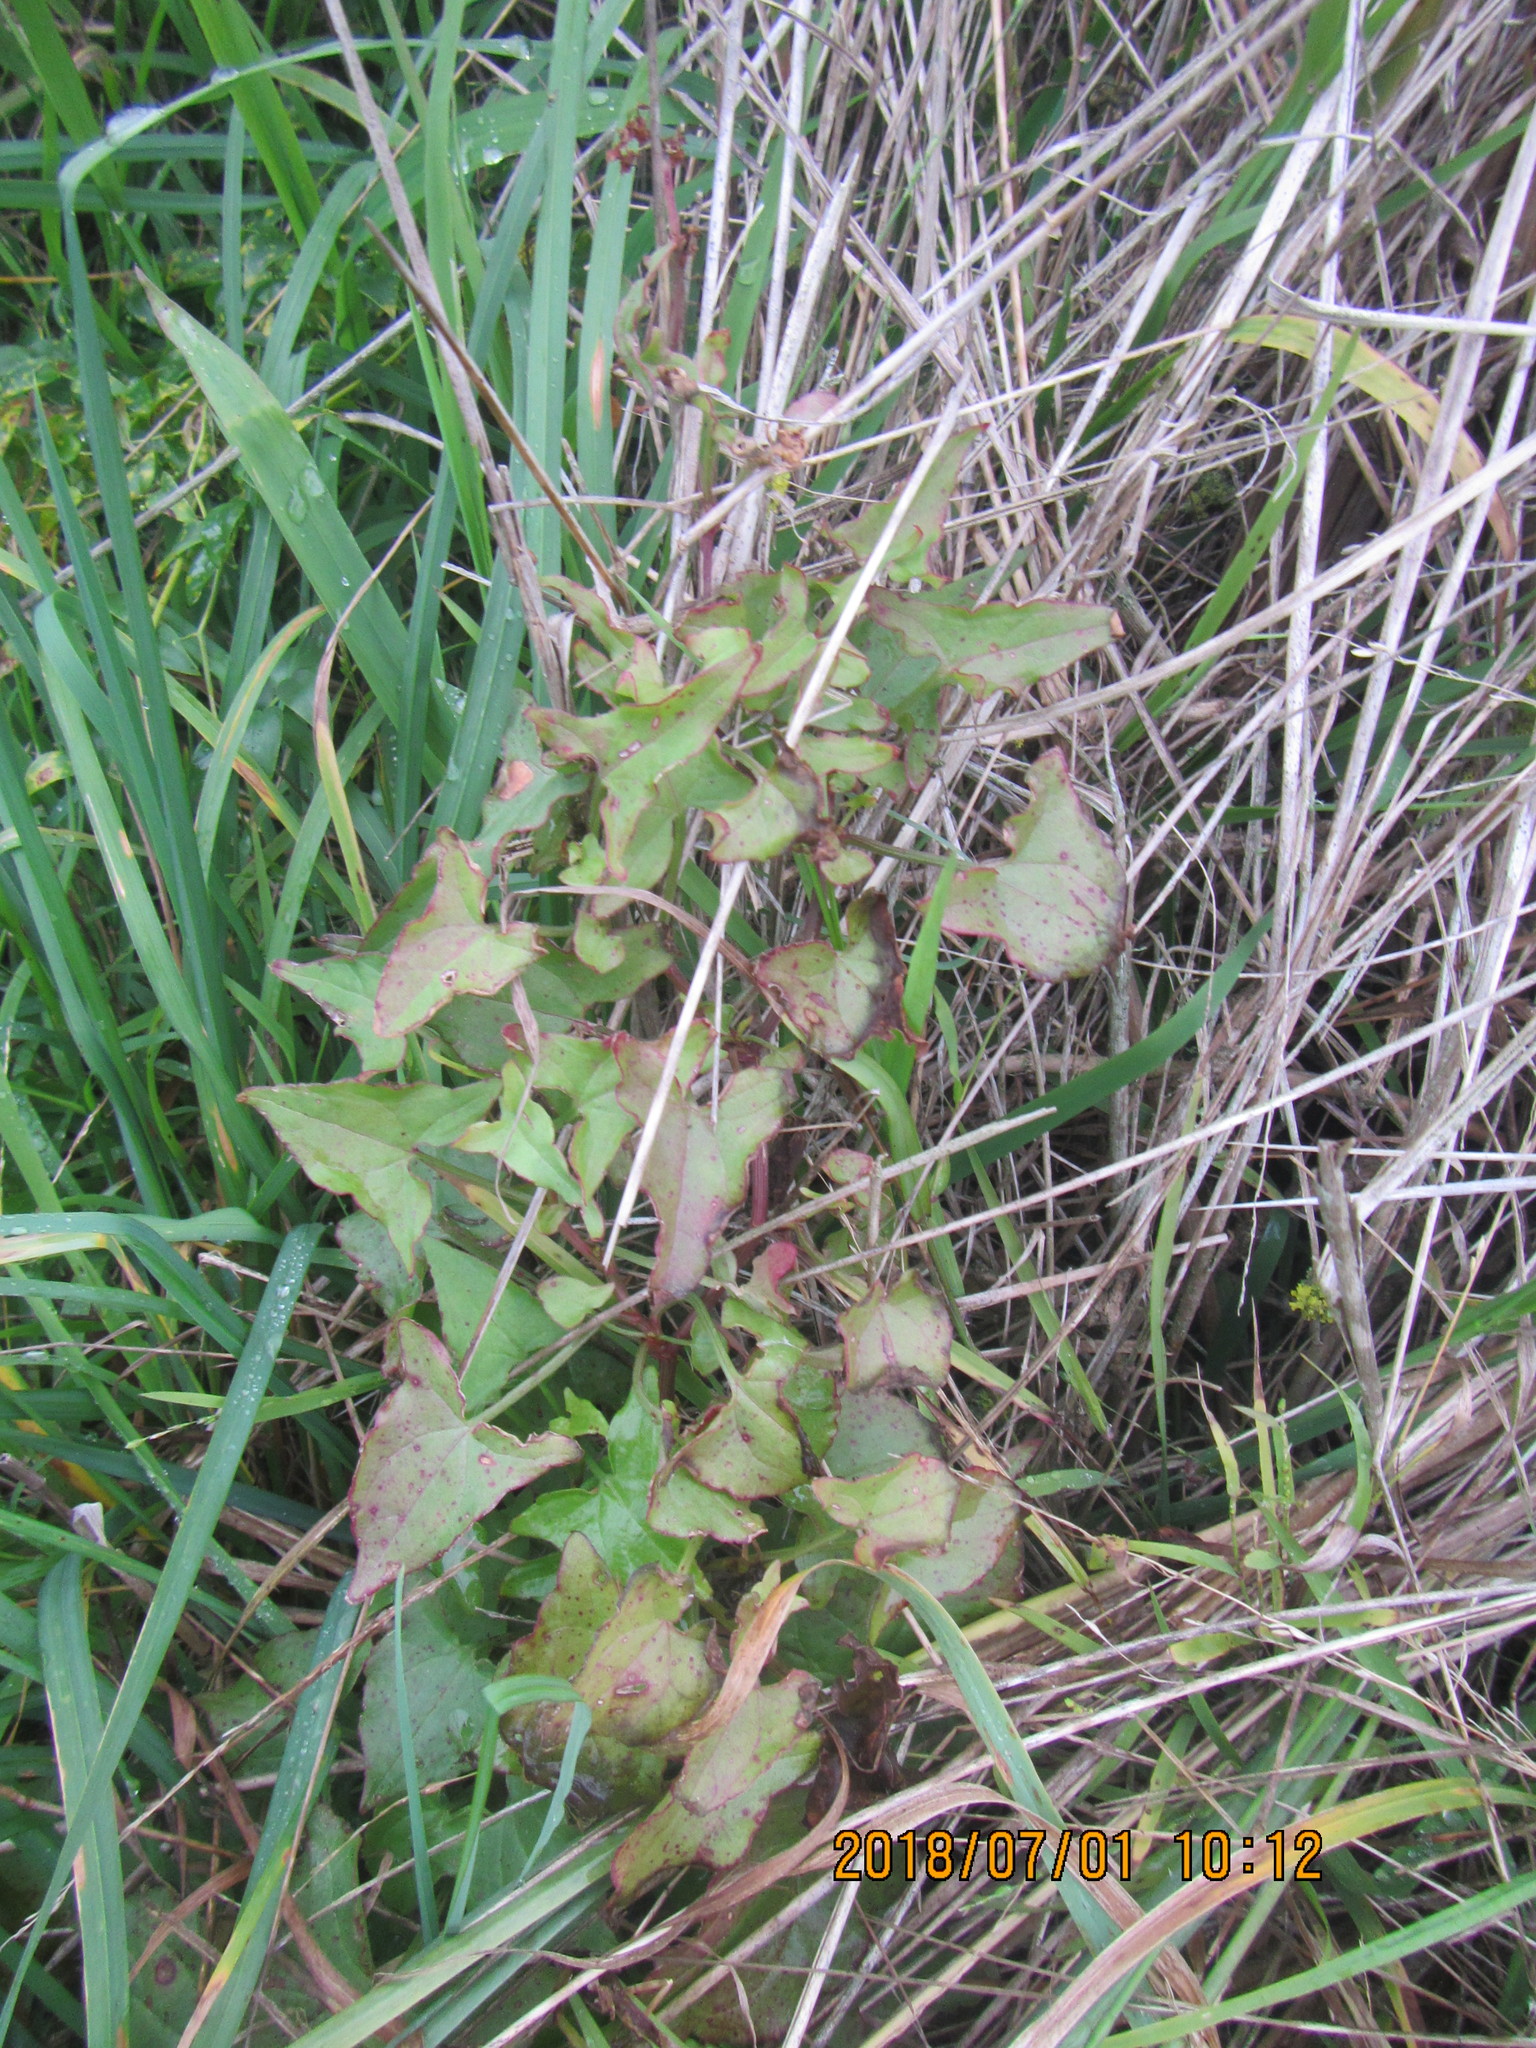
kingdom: Plantae
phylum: Tracheophyta
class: Magnoliopsida
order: Caryophyllales
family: Polygonaceae
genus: Rumex
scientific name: Rumex sagittatus
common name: Climbing dock
